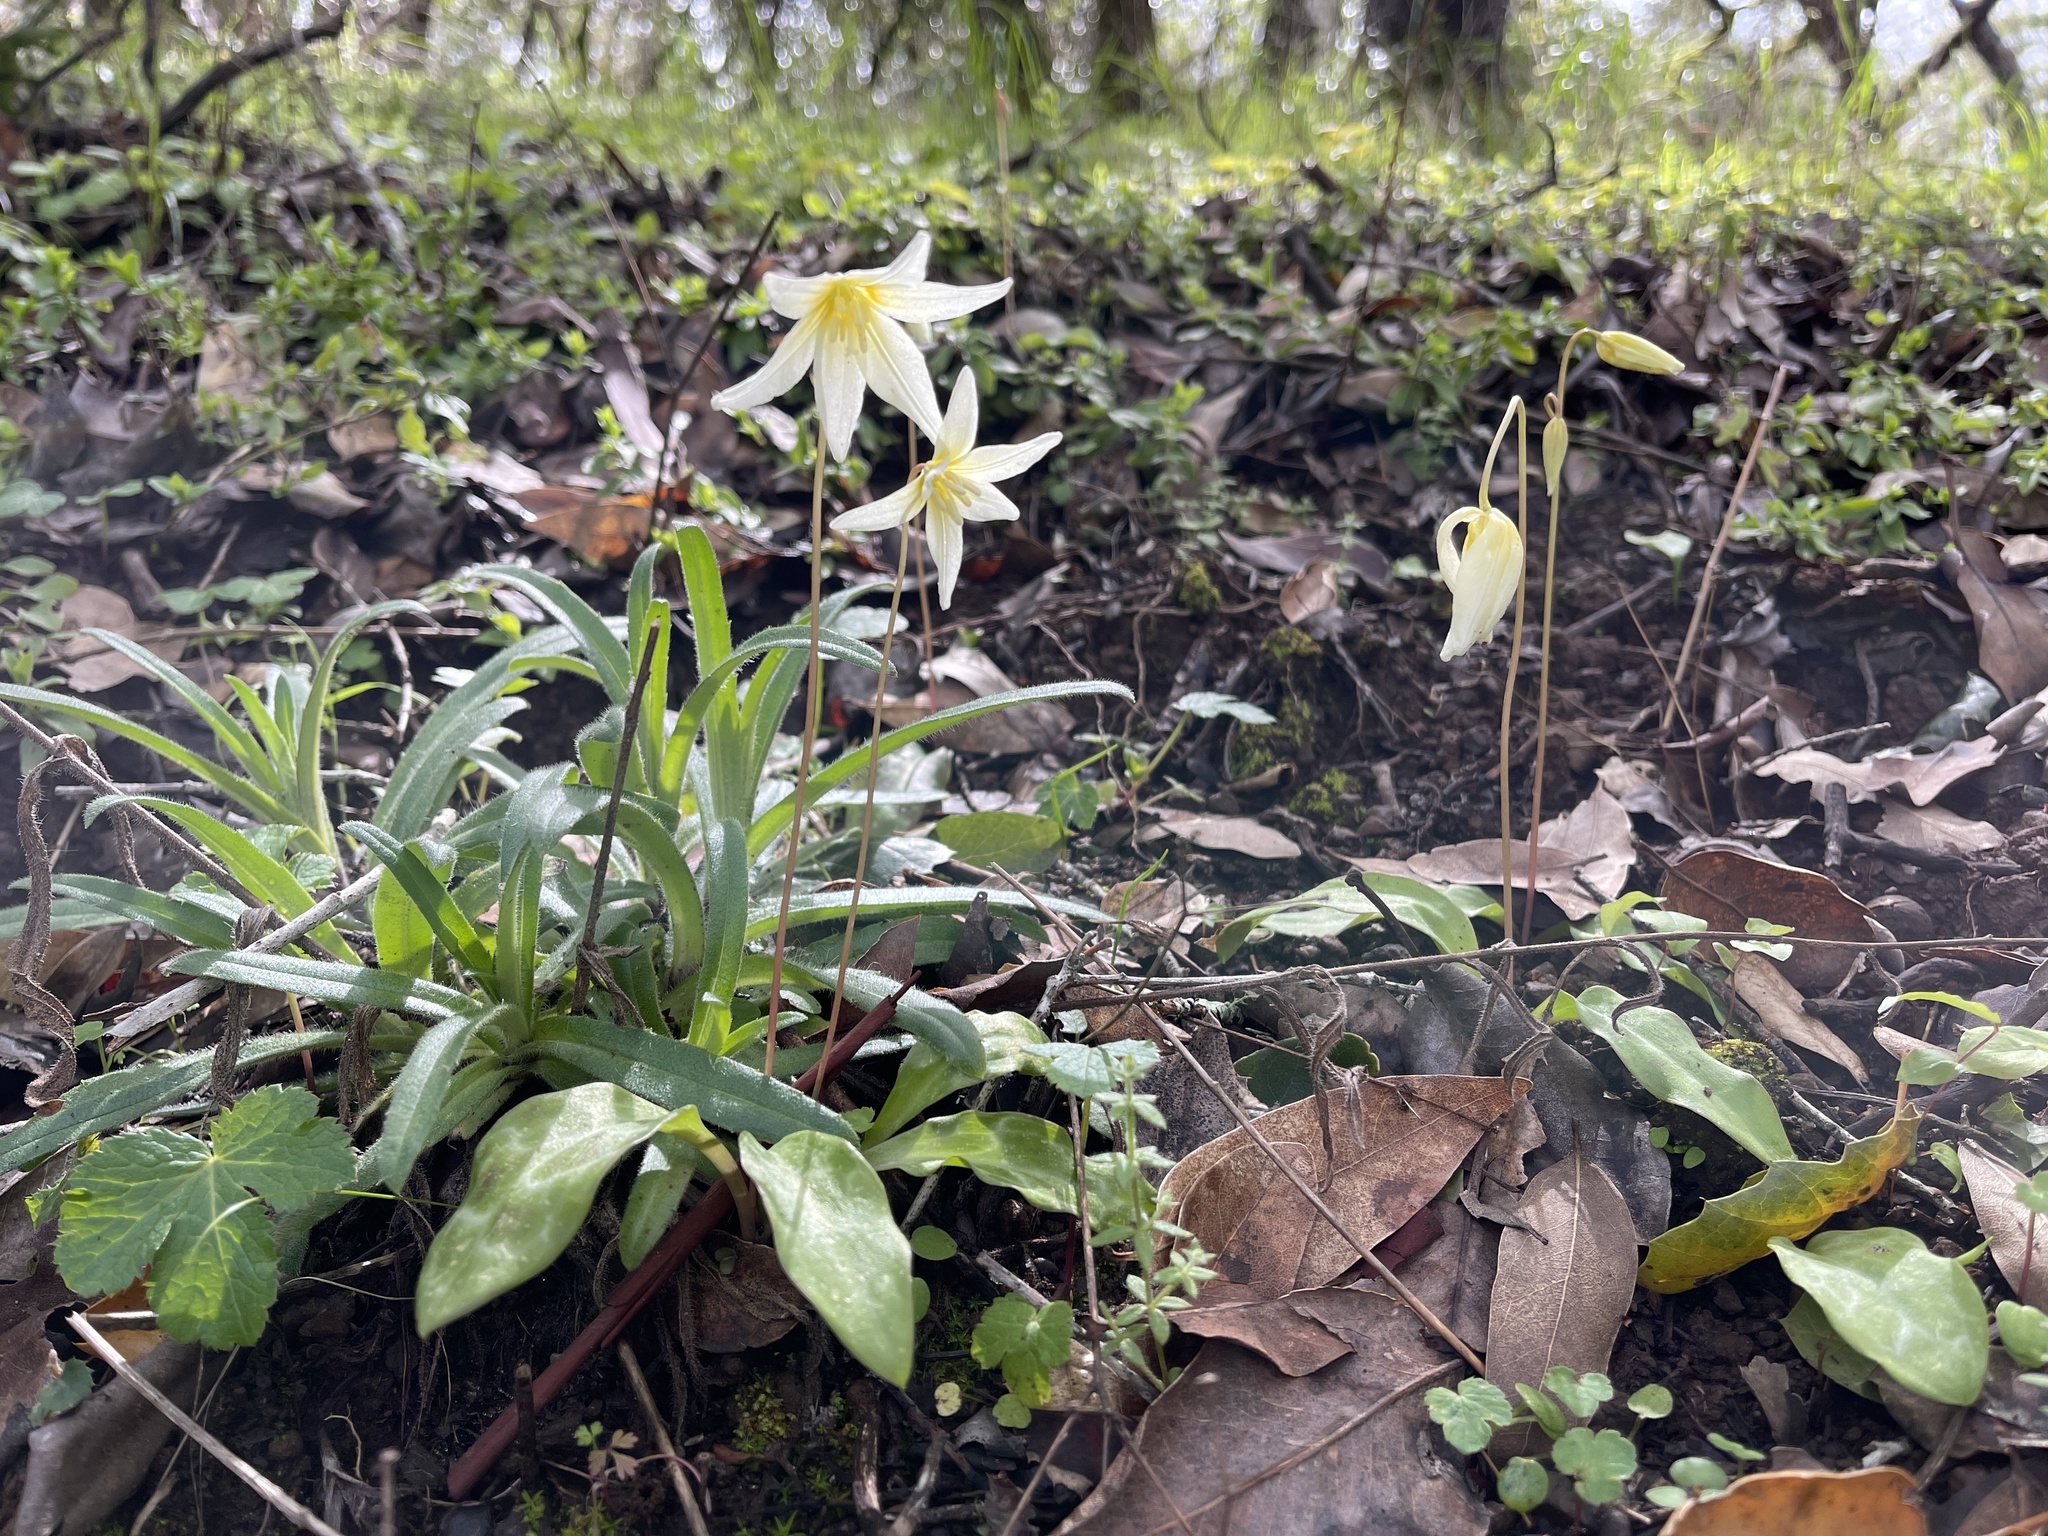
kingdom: Plantae
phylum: Tracheophyta
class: Liliopsida
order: Liliales
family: Liliaceae
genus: Erythronium
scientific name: Erythronium californicum
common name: Fawn-lily
